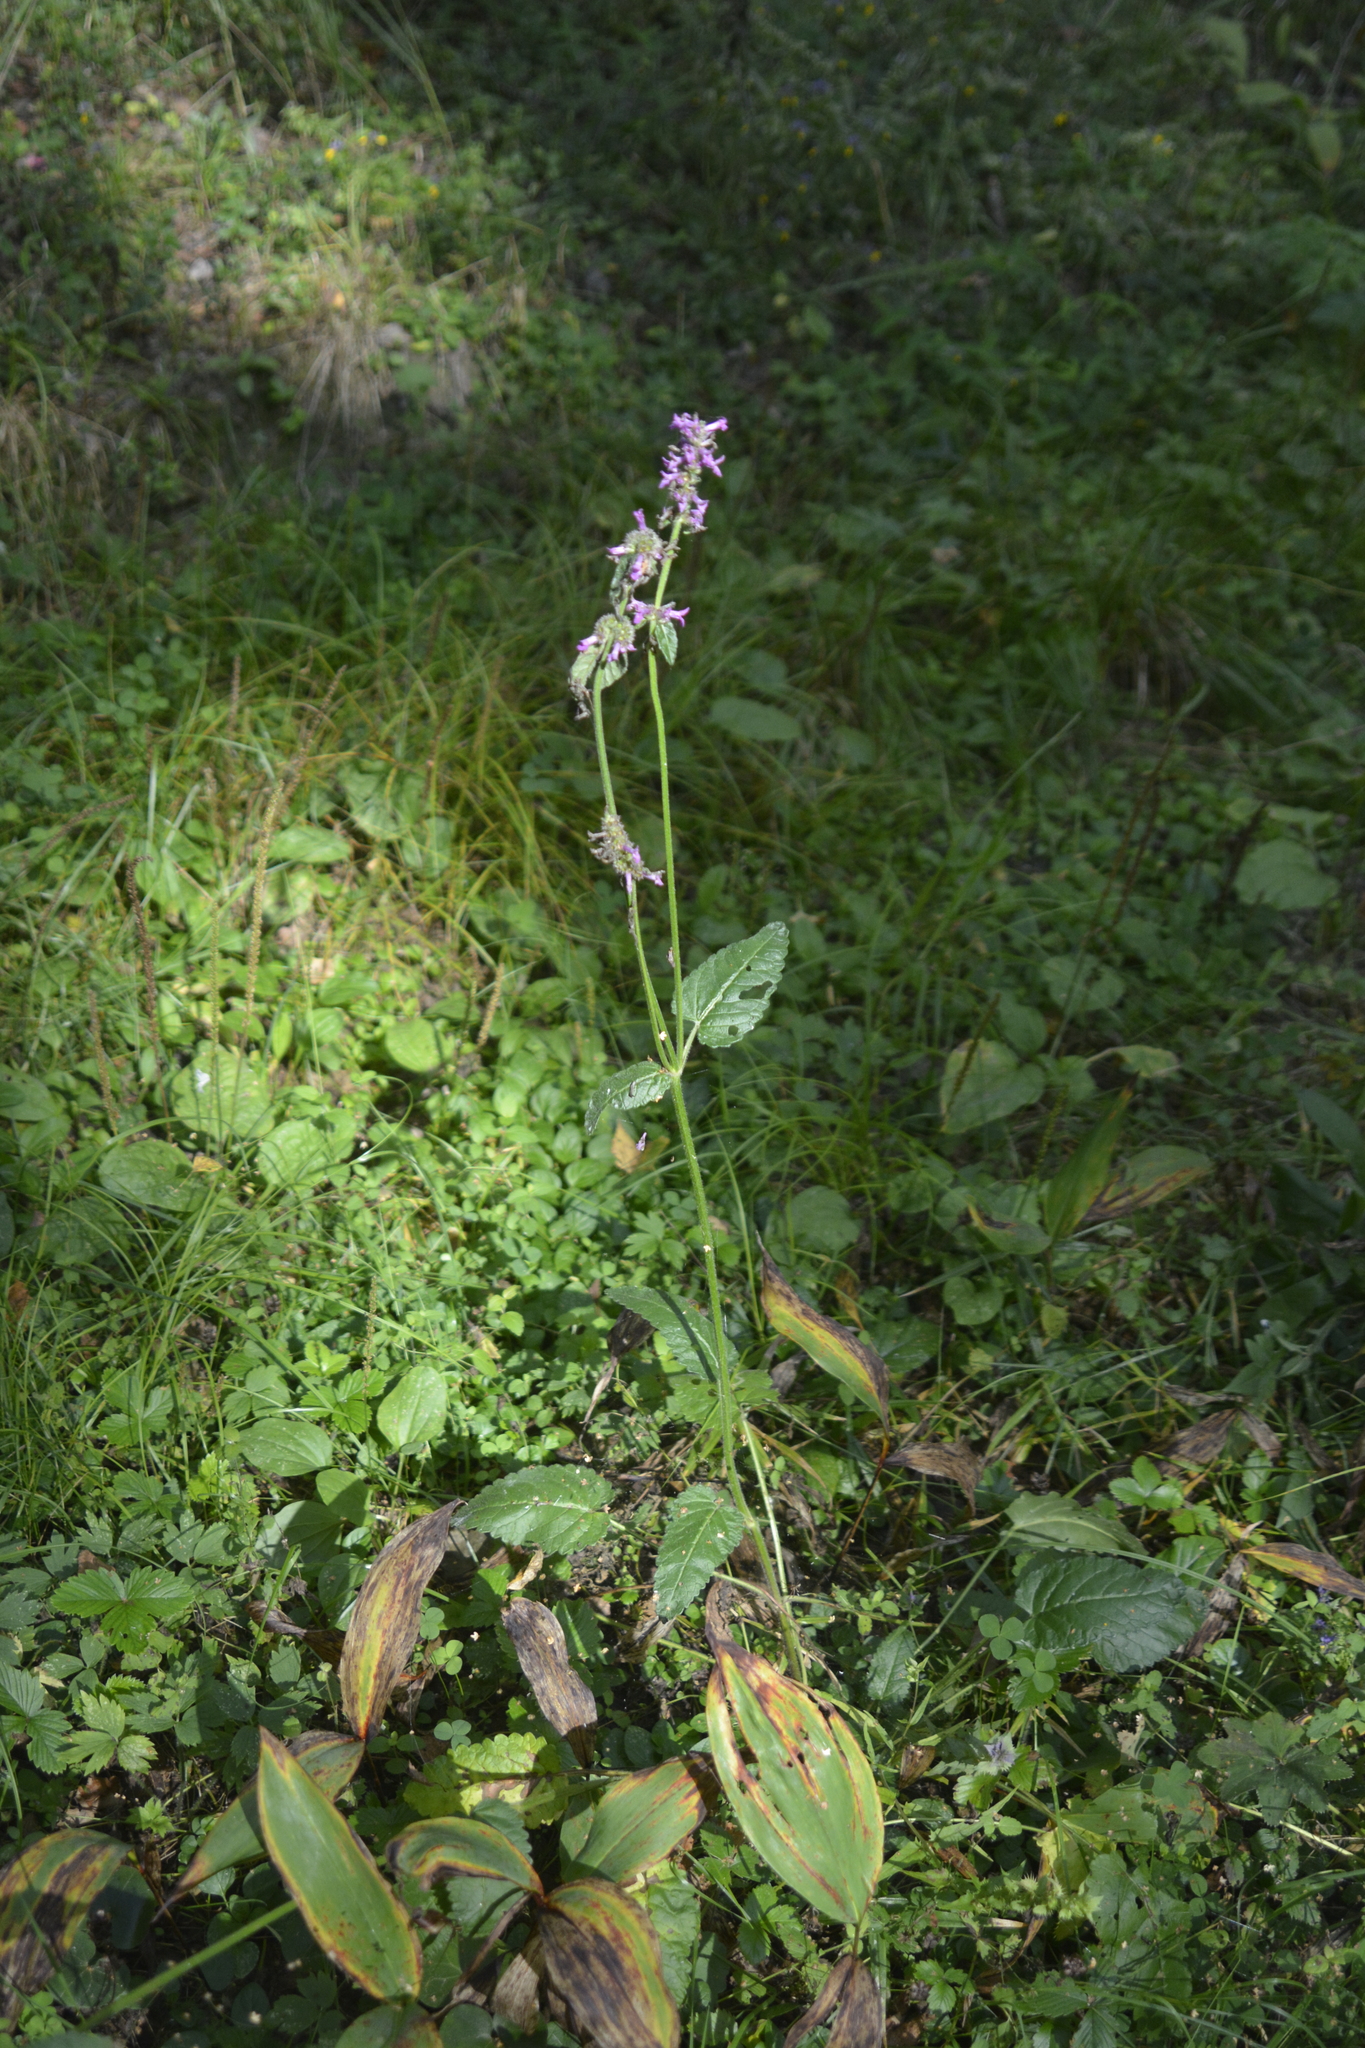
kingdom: Plantae
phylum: Tracheophyta
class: Magnoliopsida
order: Lamiales
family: Lamiaceae
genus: Betonica
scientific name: Betonica officinalis
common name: Bishop's-wort
